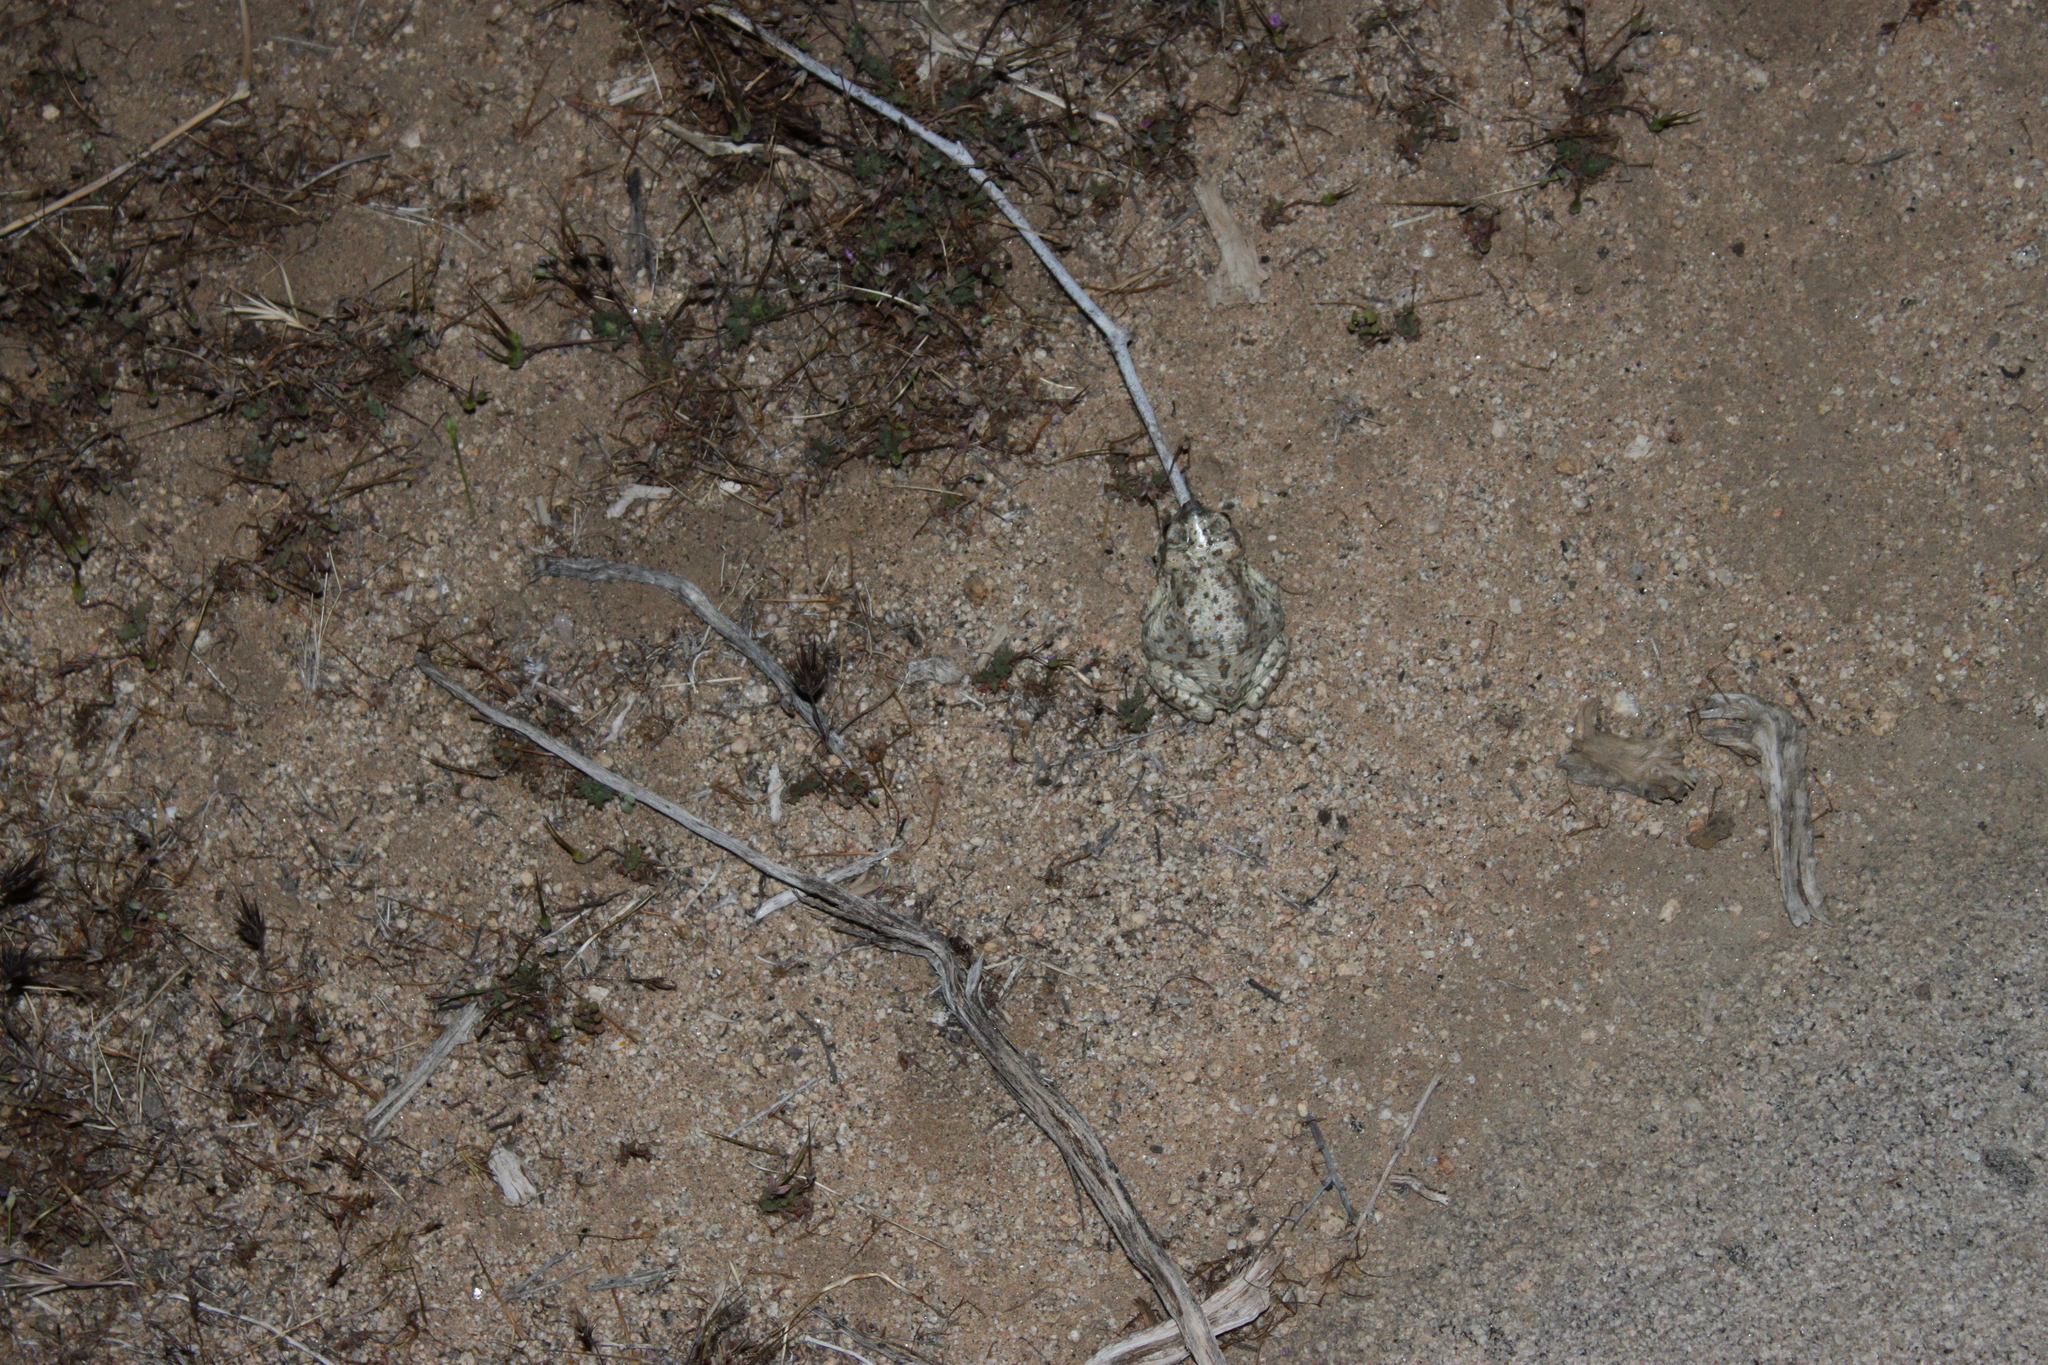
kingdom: Animalia
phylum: Chordata
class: Amphibia
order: Anura
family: Bufonidae
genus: Anaxyrus
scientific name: Anaxyrus punctatus
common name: Red-spotted toad
